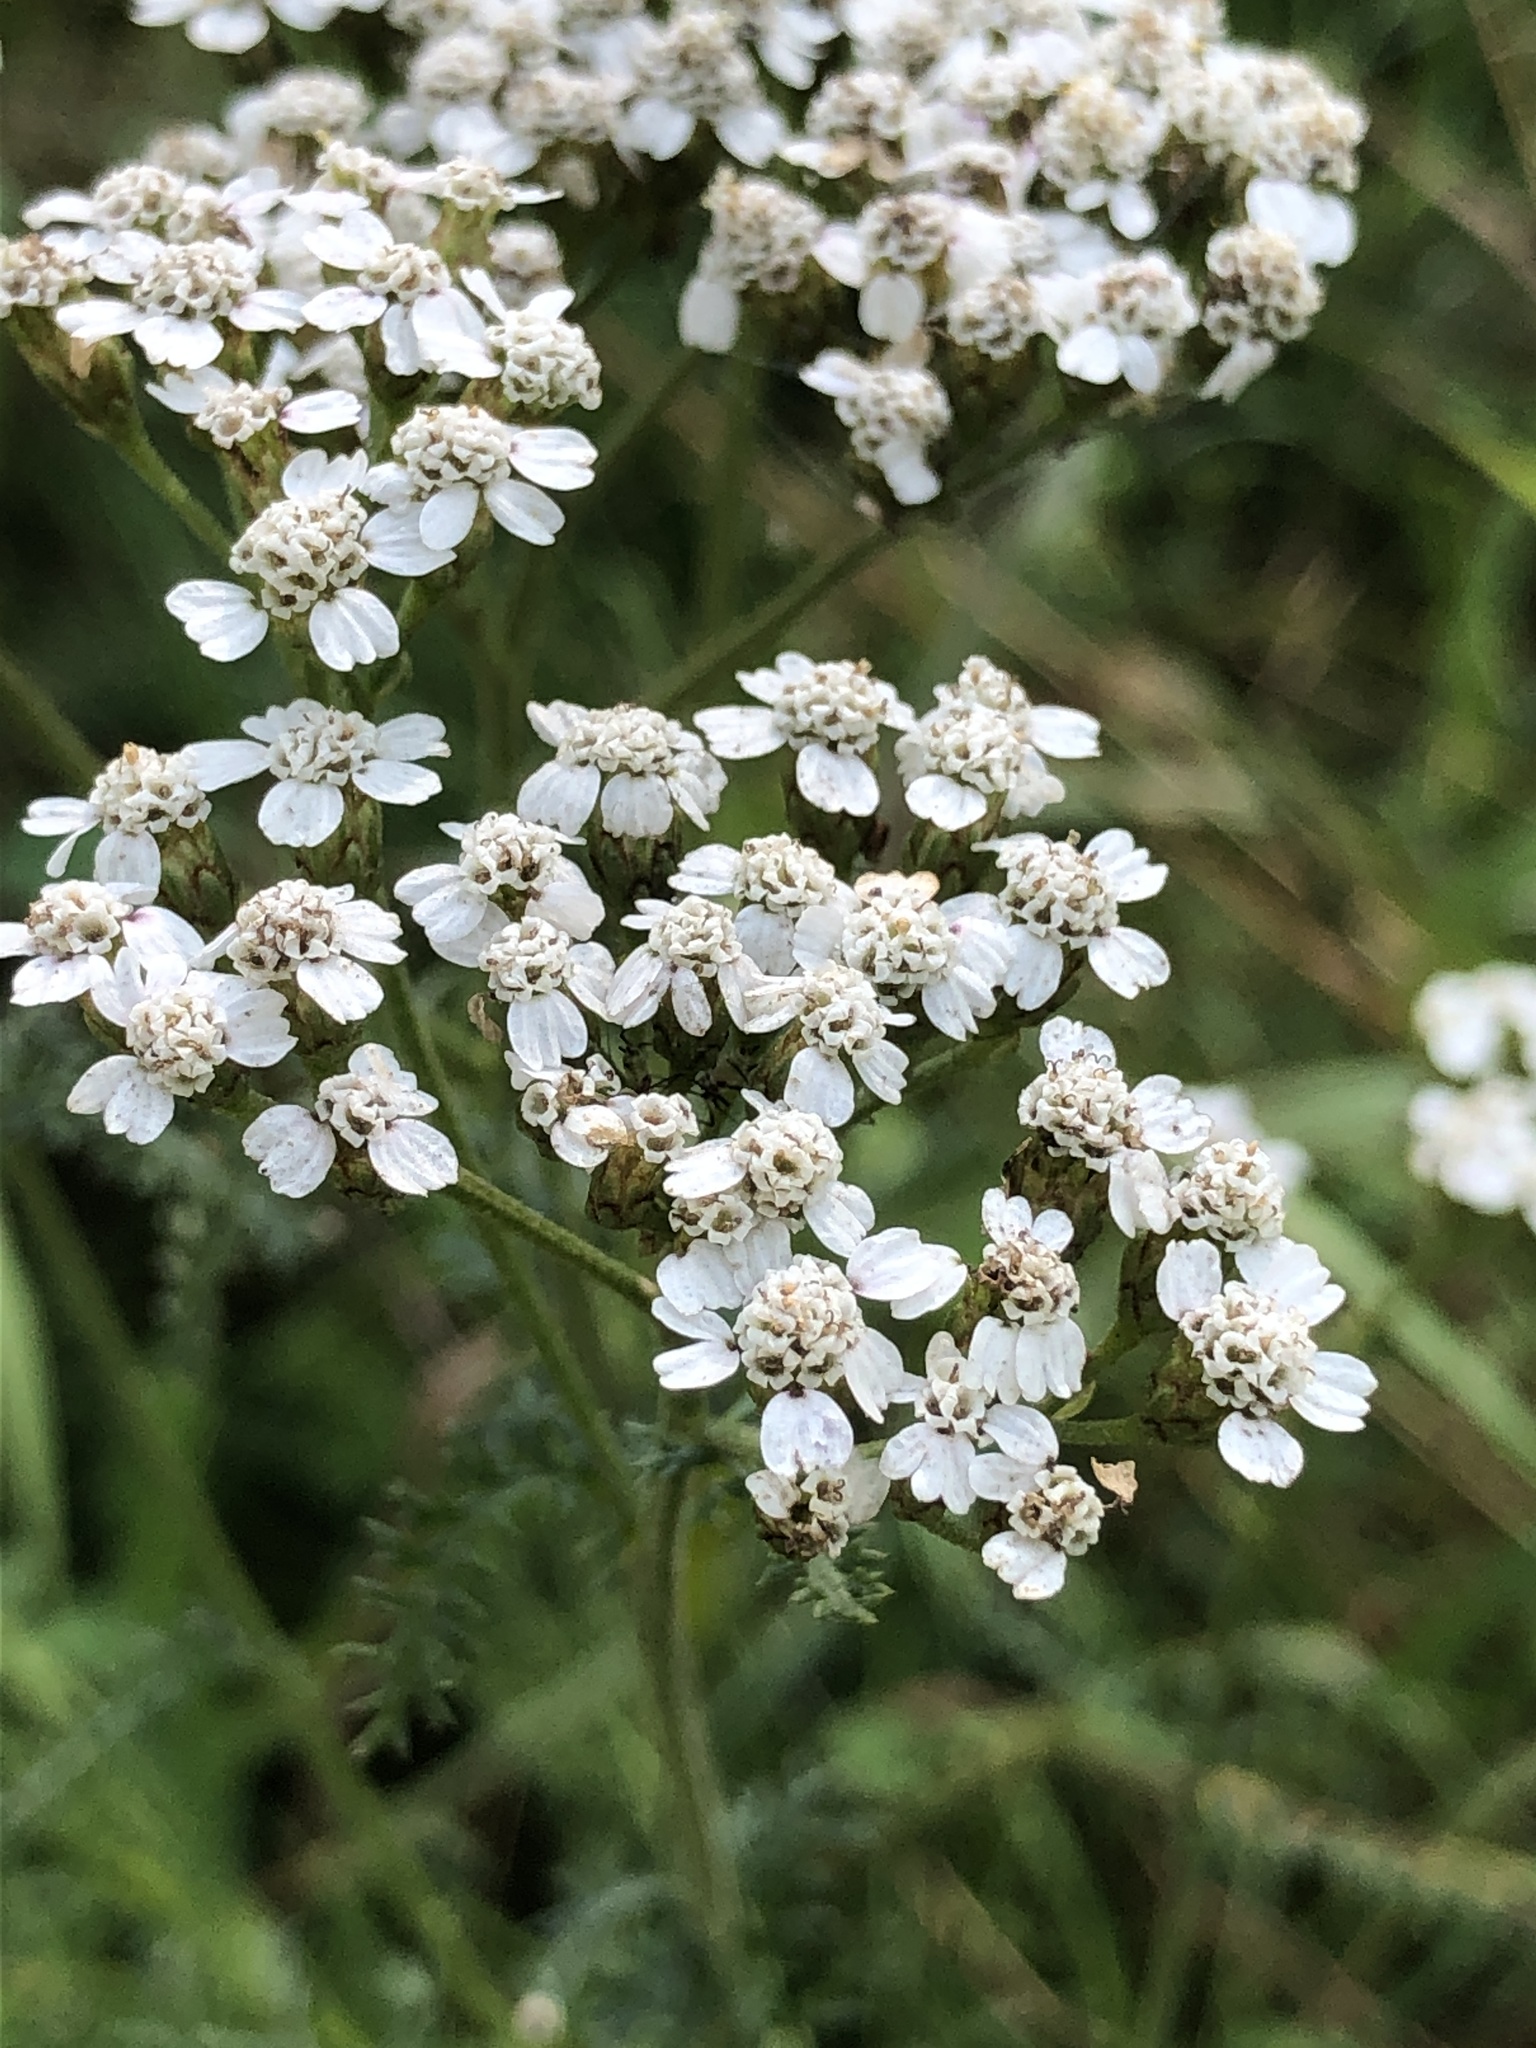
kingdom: Plantae
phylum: Tracheophyta
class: Magnoliopsida
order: Asterales
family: Asteraceae
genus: Achillea
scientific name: Achillea millefolium
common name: Yarrow
